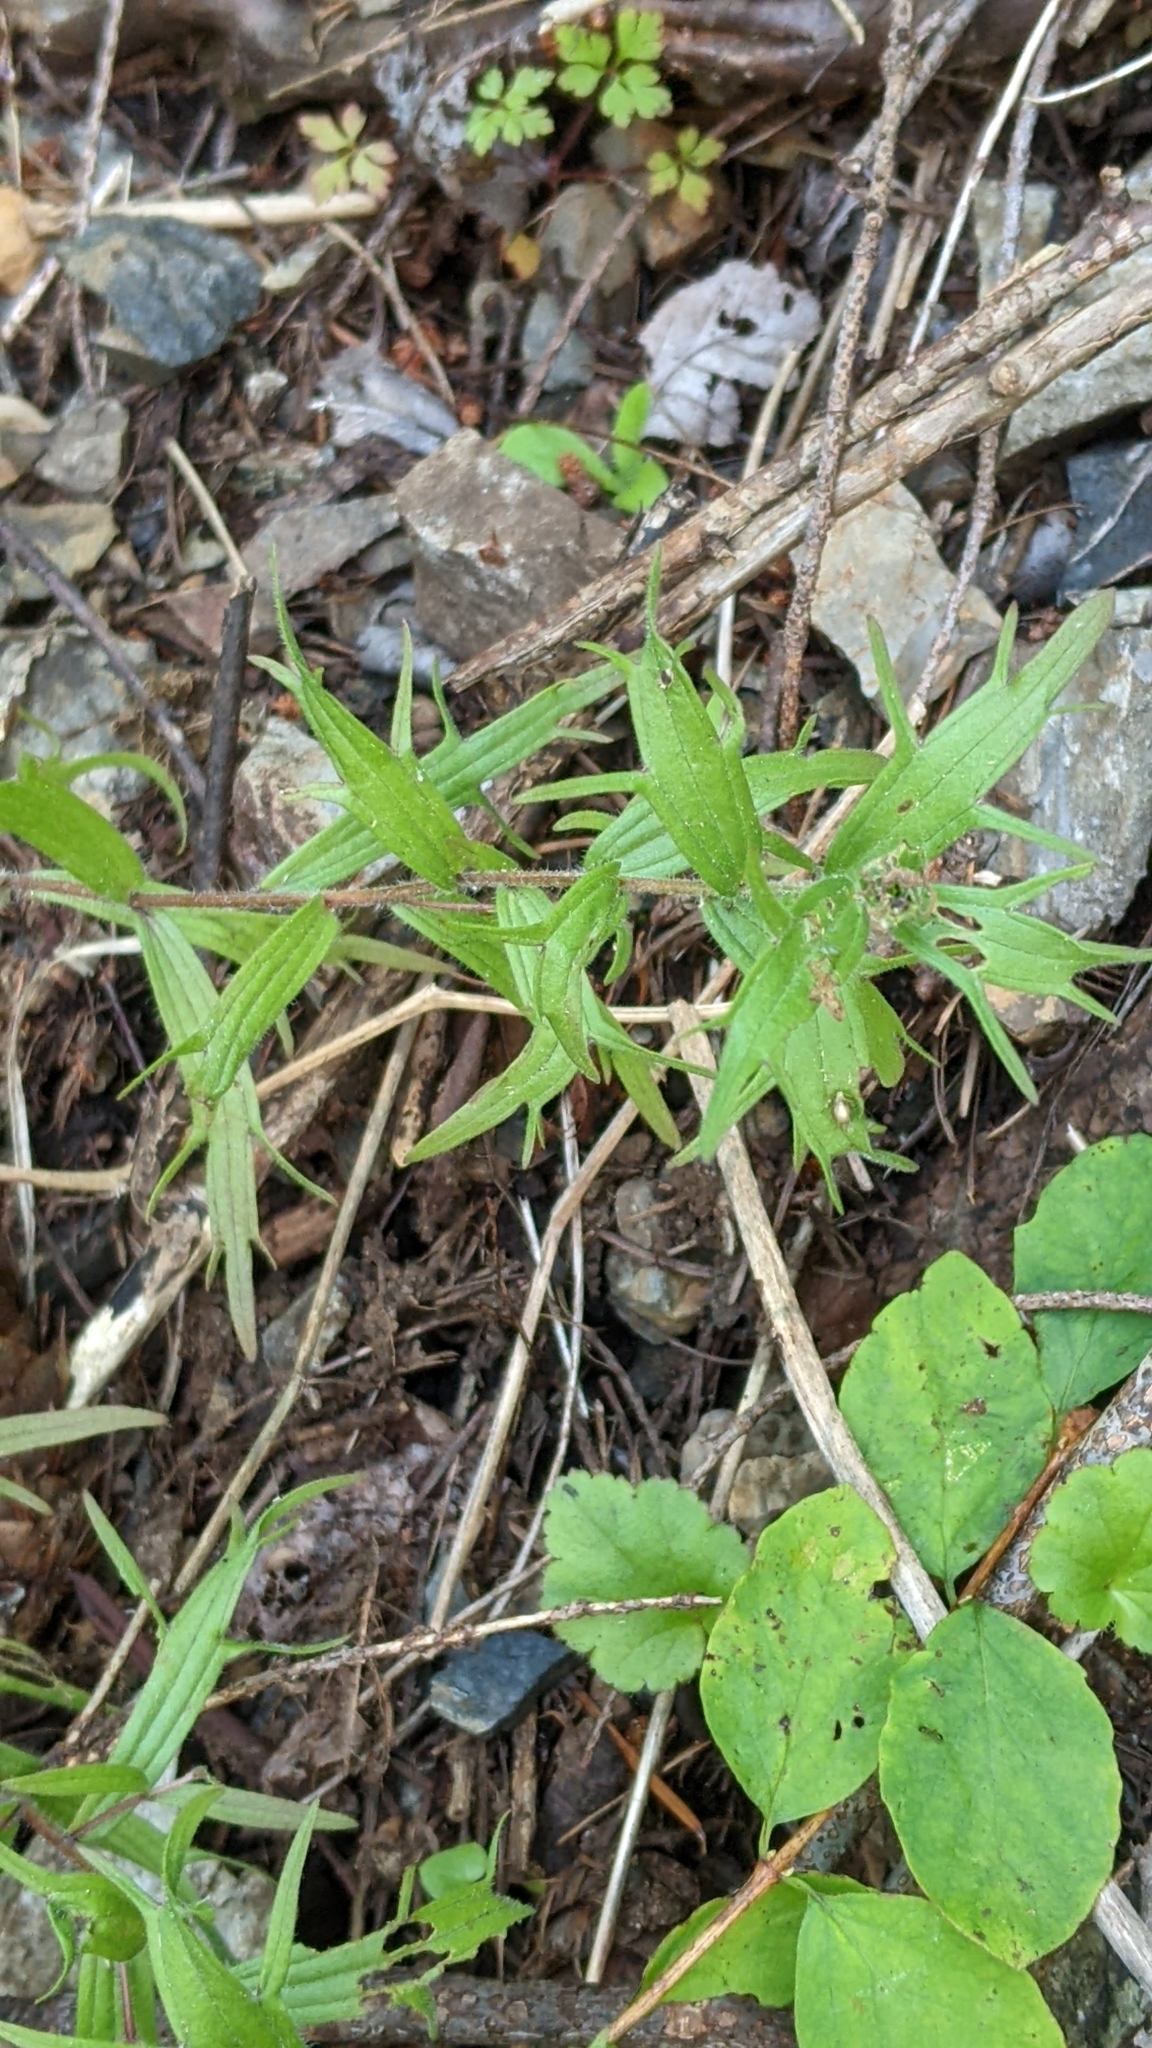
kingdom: Plantae
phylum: Tracheophyta
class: Magnoliopsida
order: Lamiales
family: Orobanchaceae
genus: Castilleja
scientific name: Castilleja hispida
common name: Bristly paintbrush
